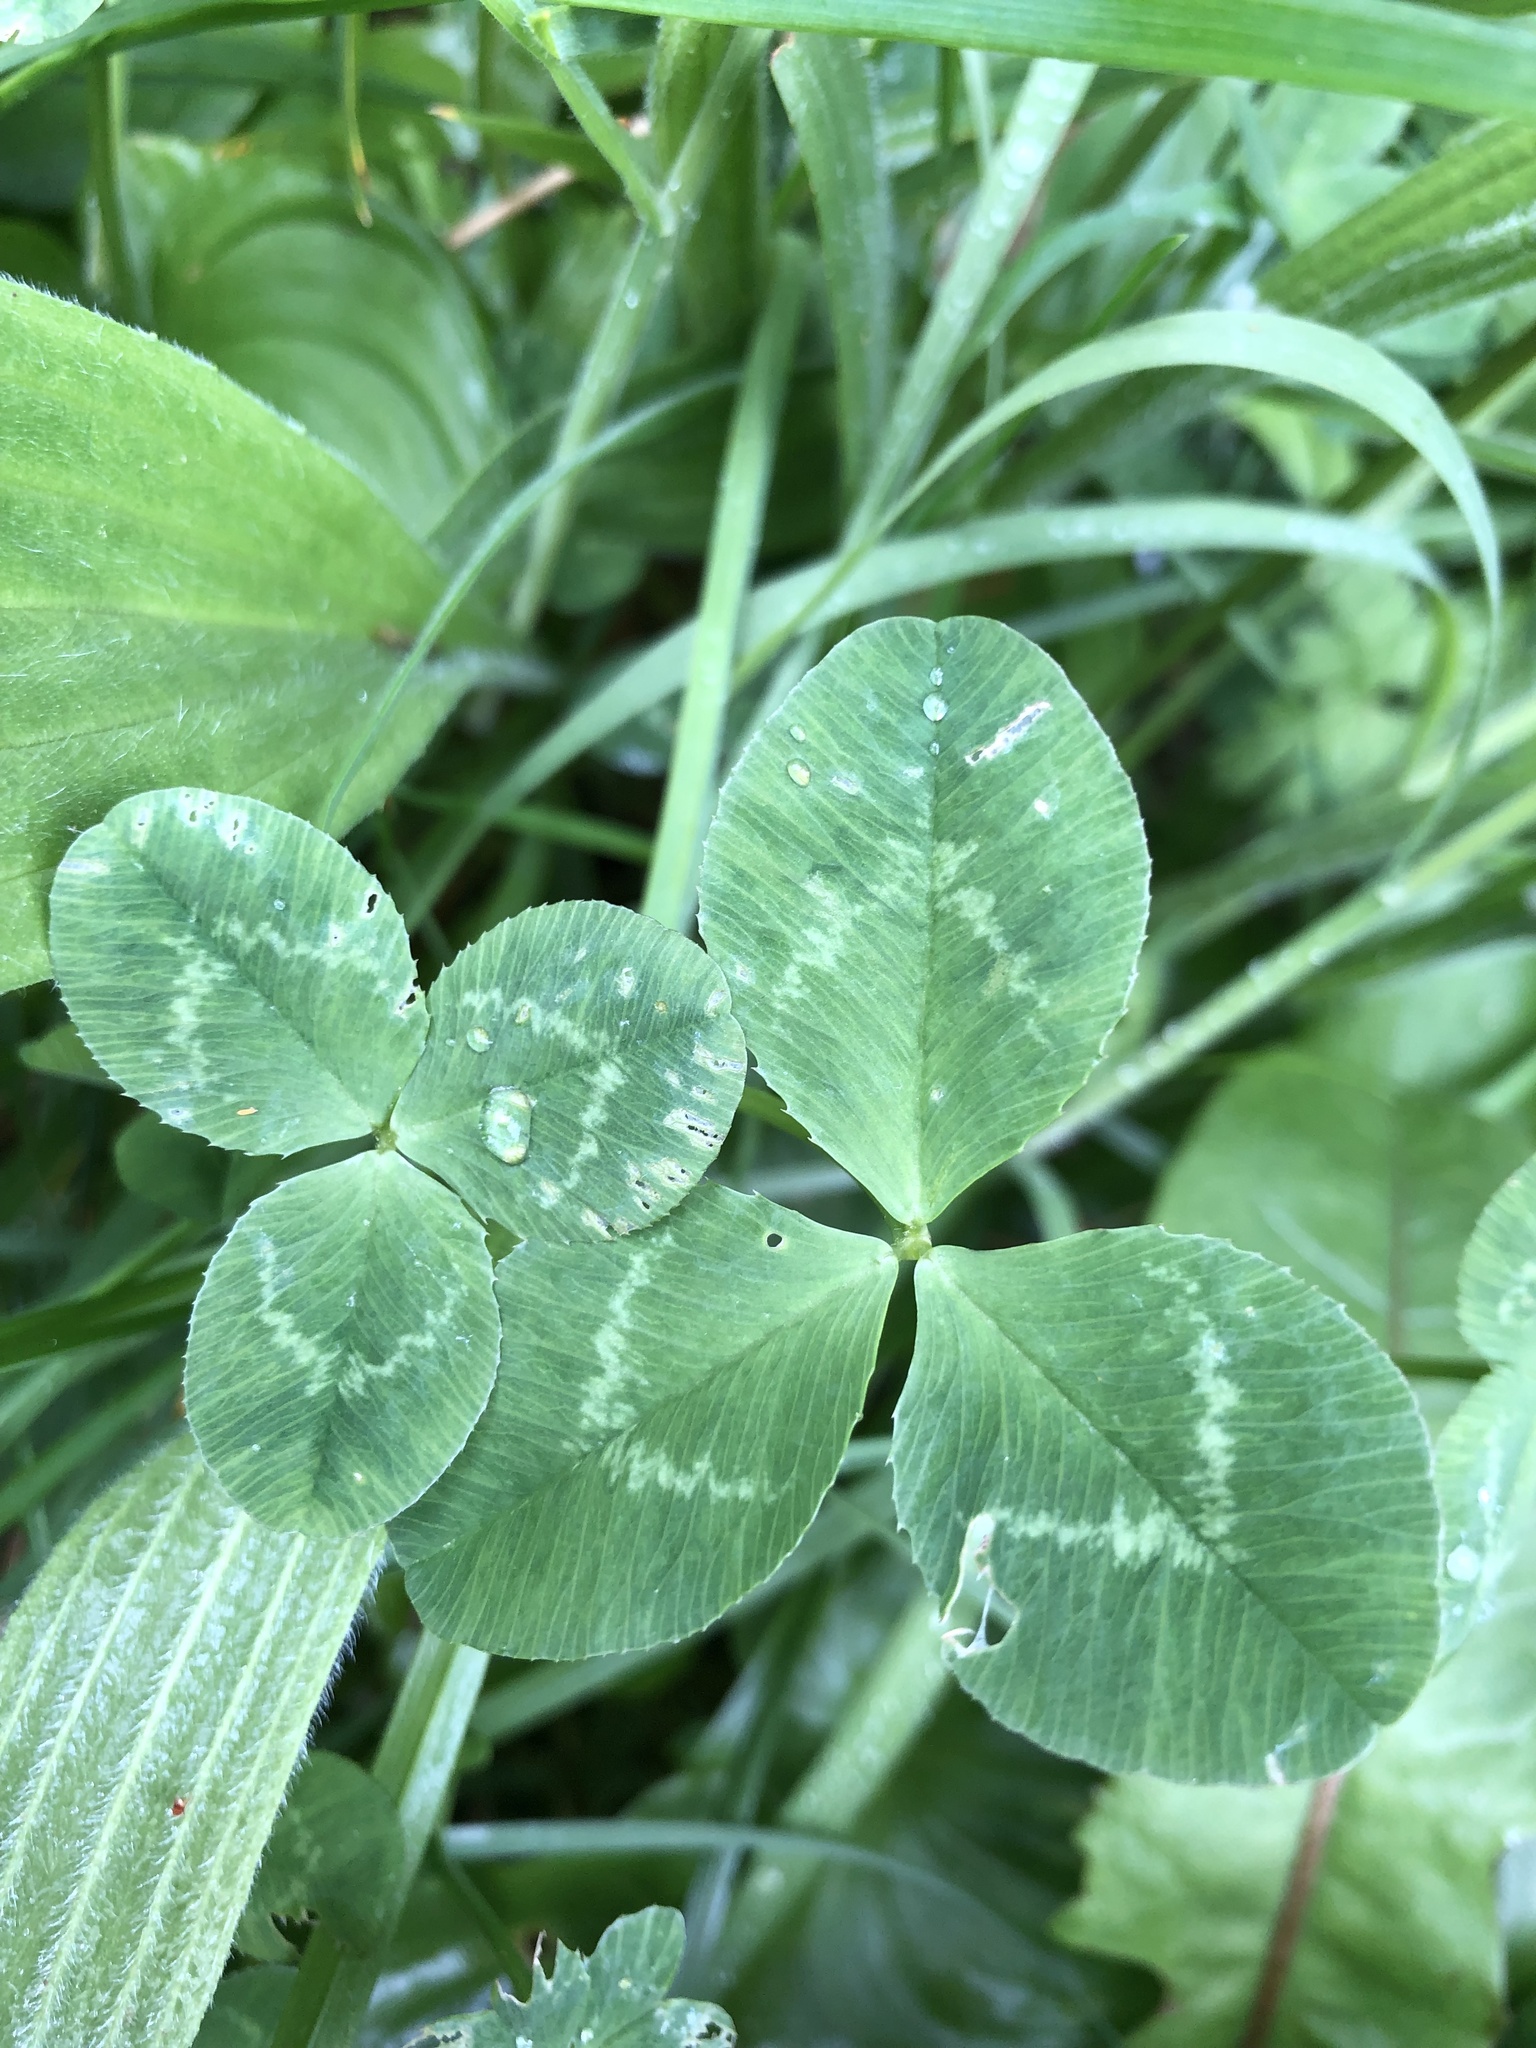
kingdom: Plantae
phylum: Tracheophyta
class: Magnoliopsida
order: Fabales
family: Fabaceae
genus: Trifolium
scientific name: Trifolium repens
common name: White clover
